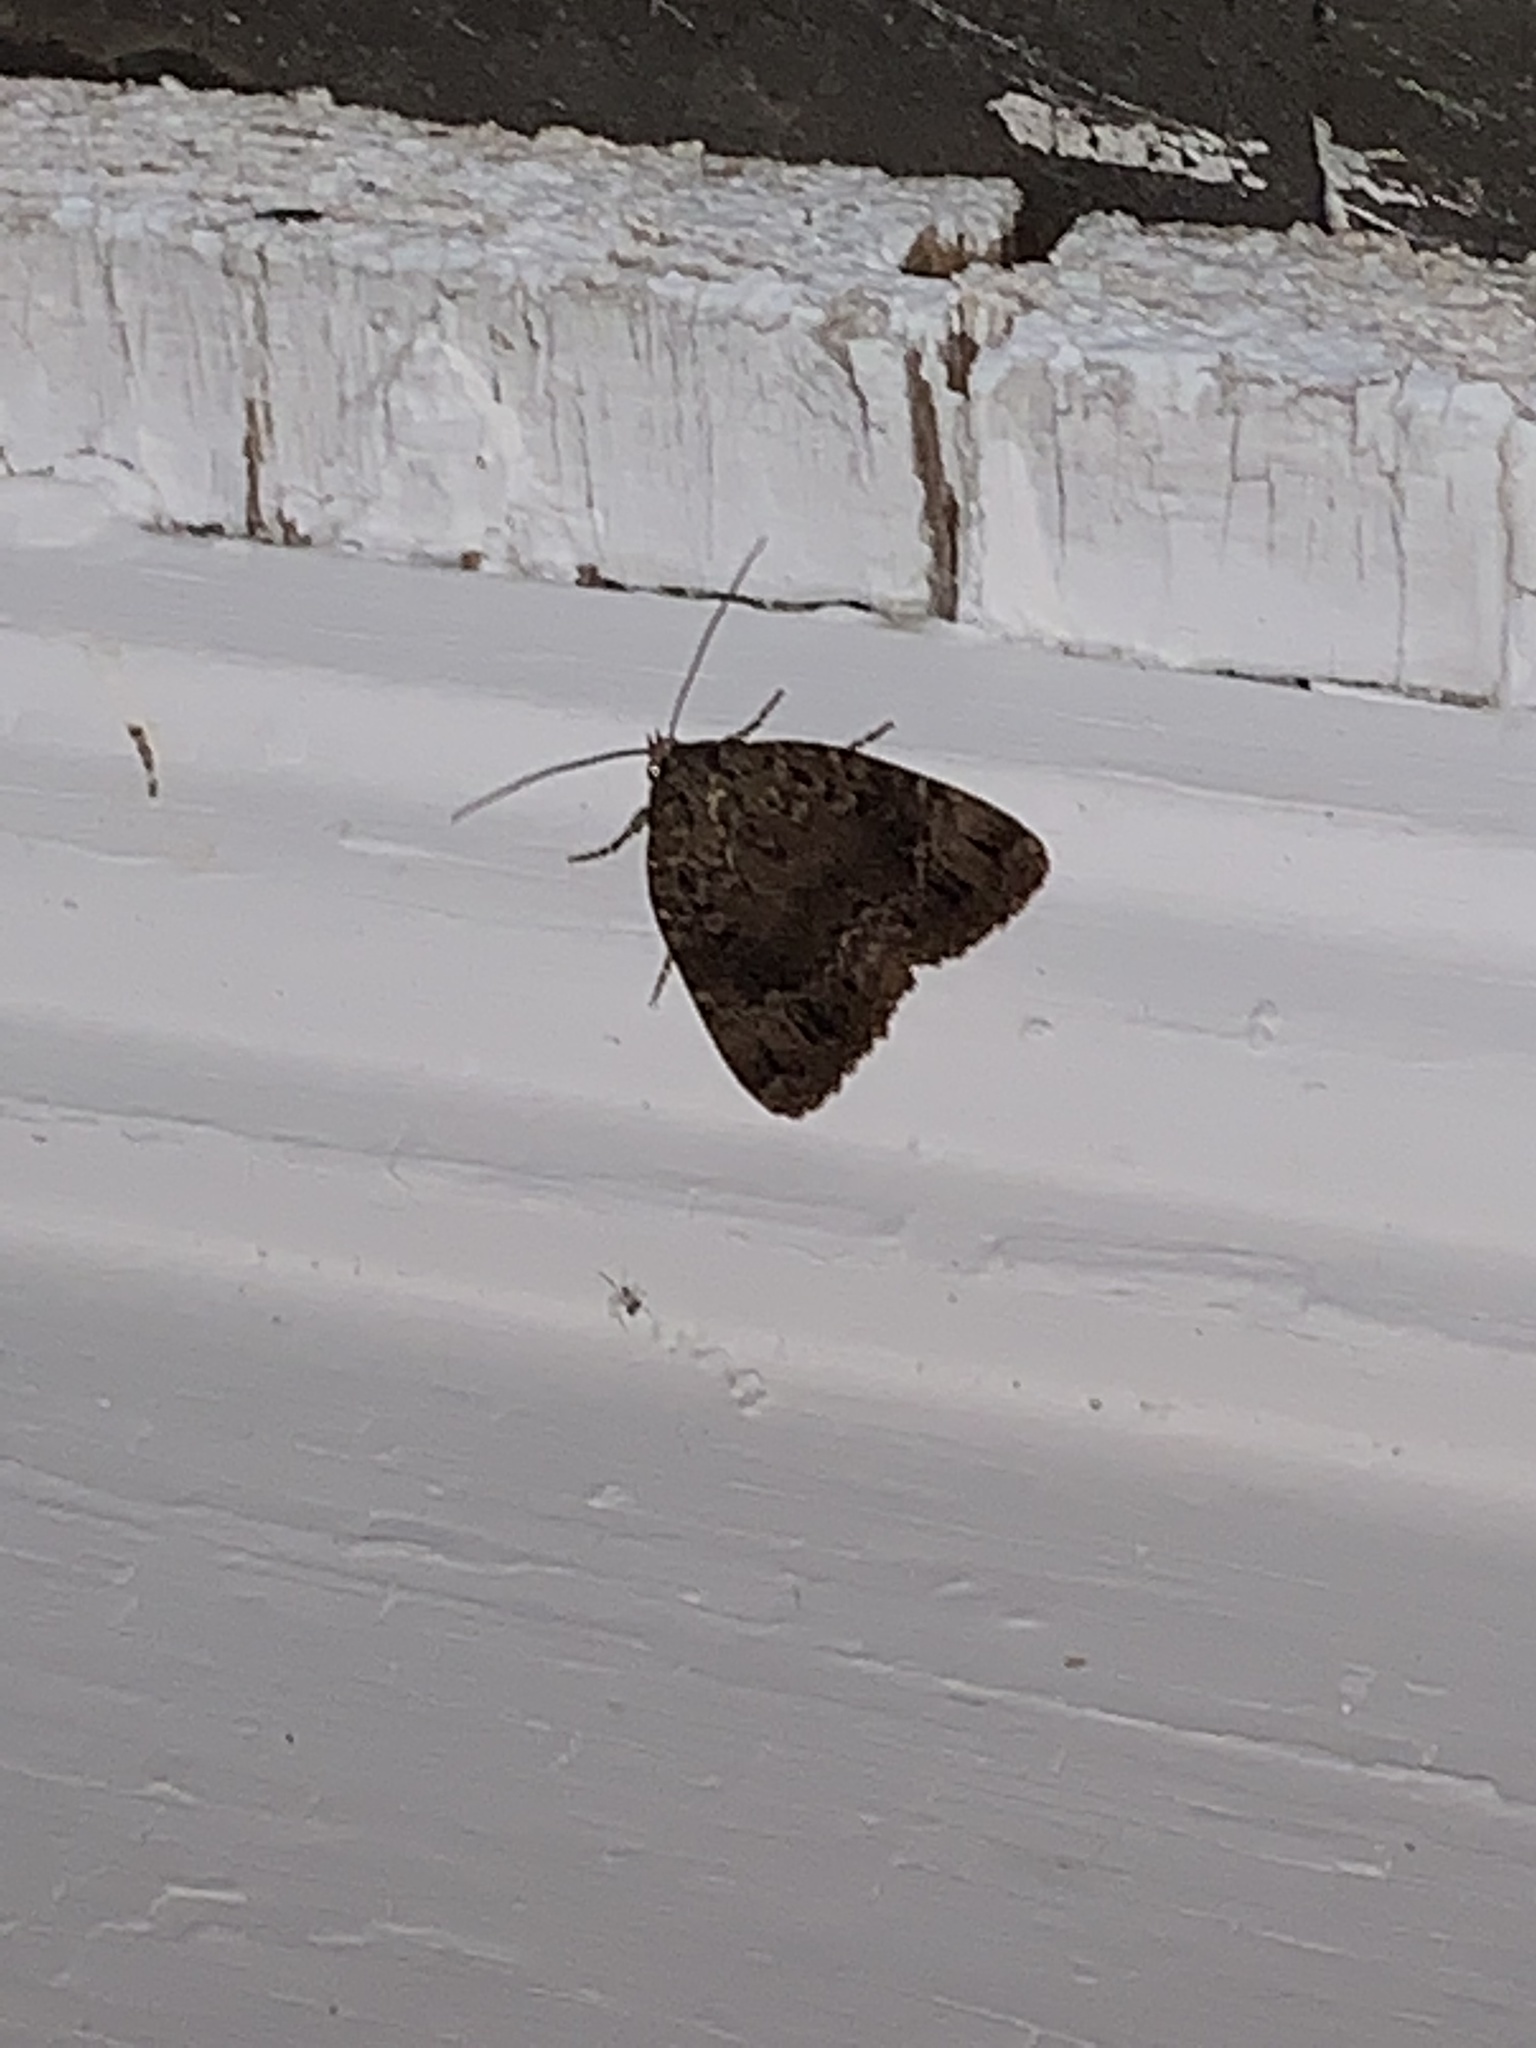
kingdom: Animalia
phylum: Arthropoda
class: Insecta
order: Lepidoptera
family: Noctuidae
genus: Amphipyra
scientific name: Amphipyra pyramidoides
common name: American copper underwing
